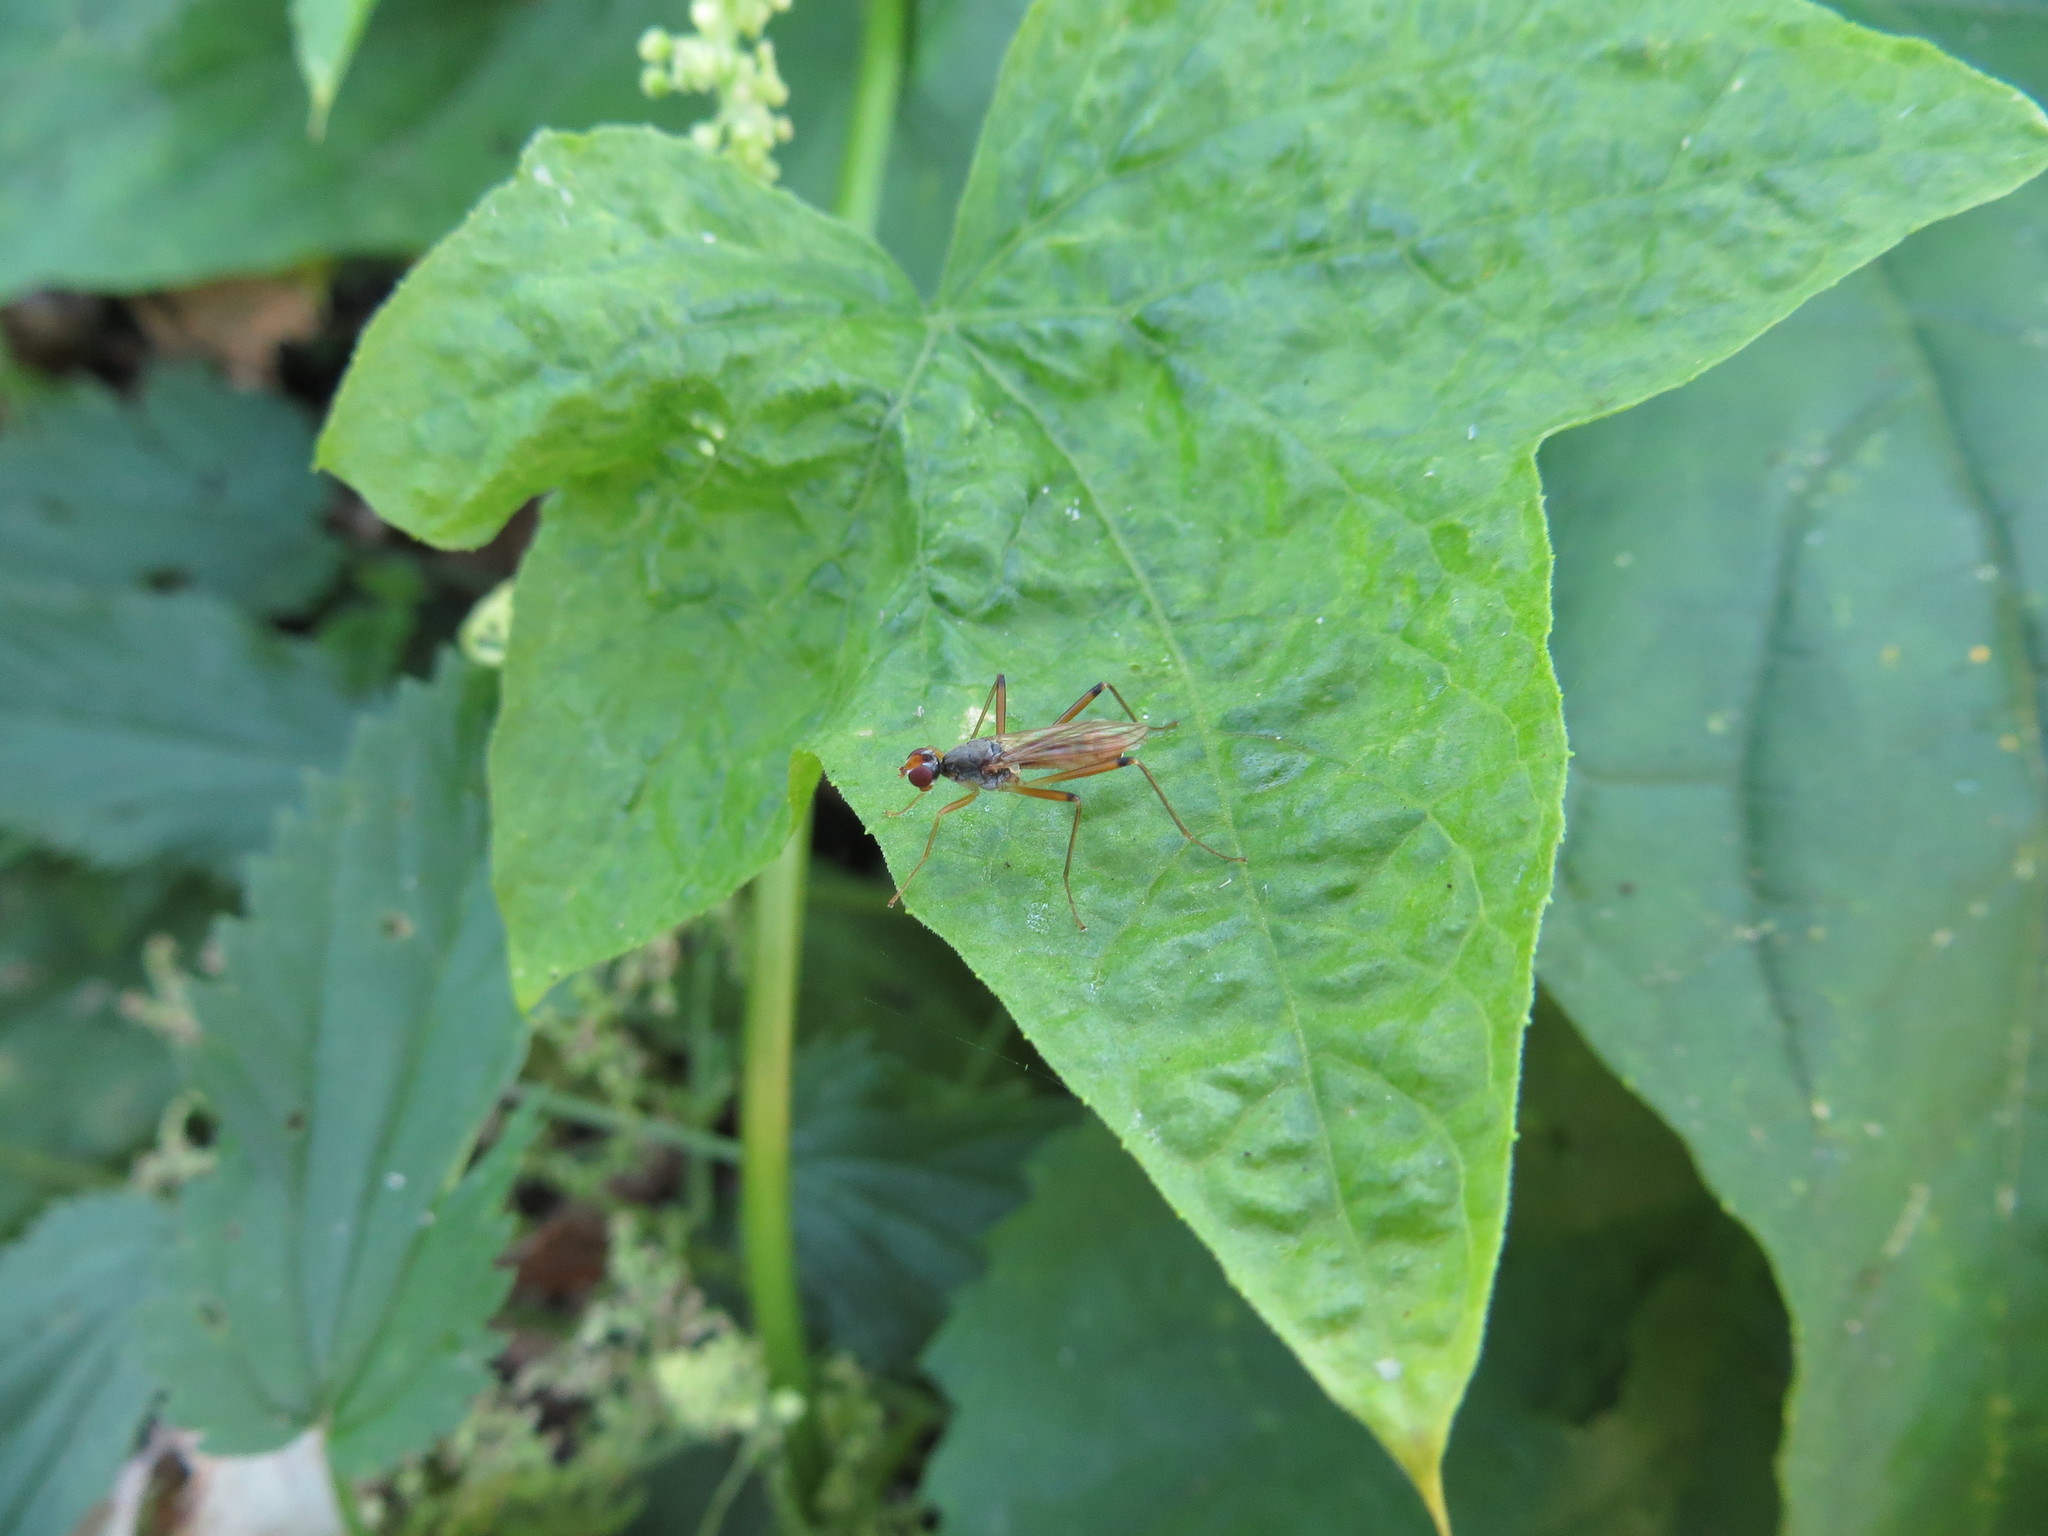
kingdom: Animalia
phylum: Arthropoda
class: Insecta
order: Diptera
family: Micropezidae
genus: Compsobata
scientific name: Compsobata cibaria
